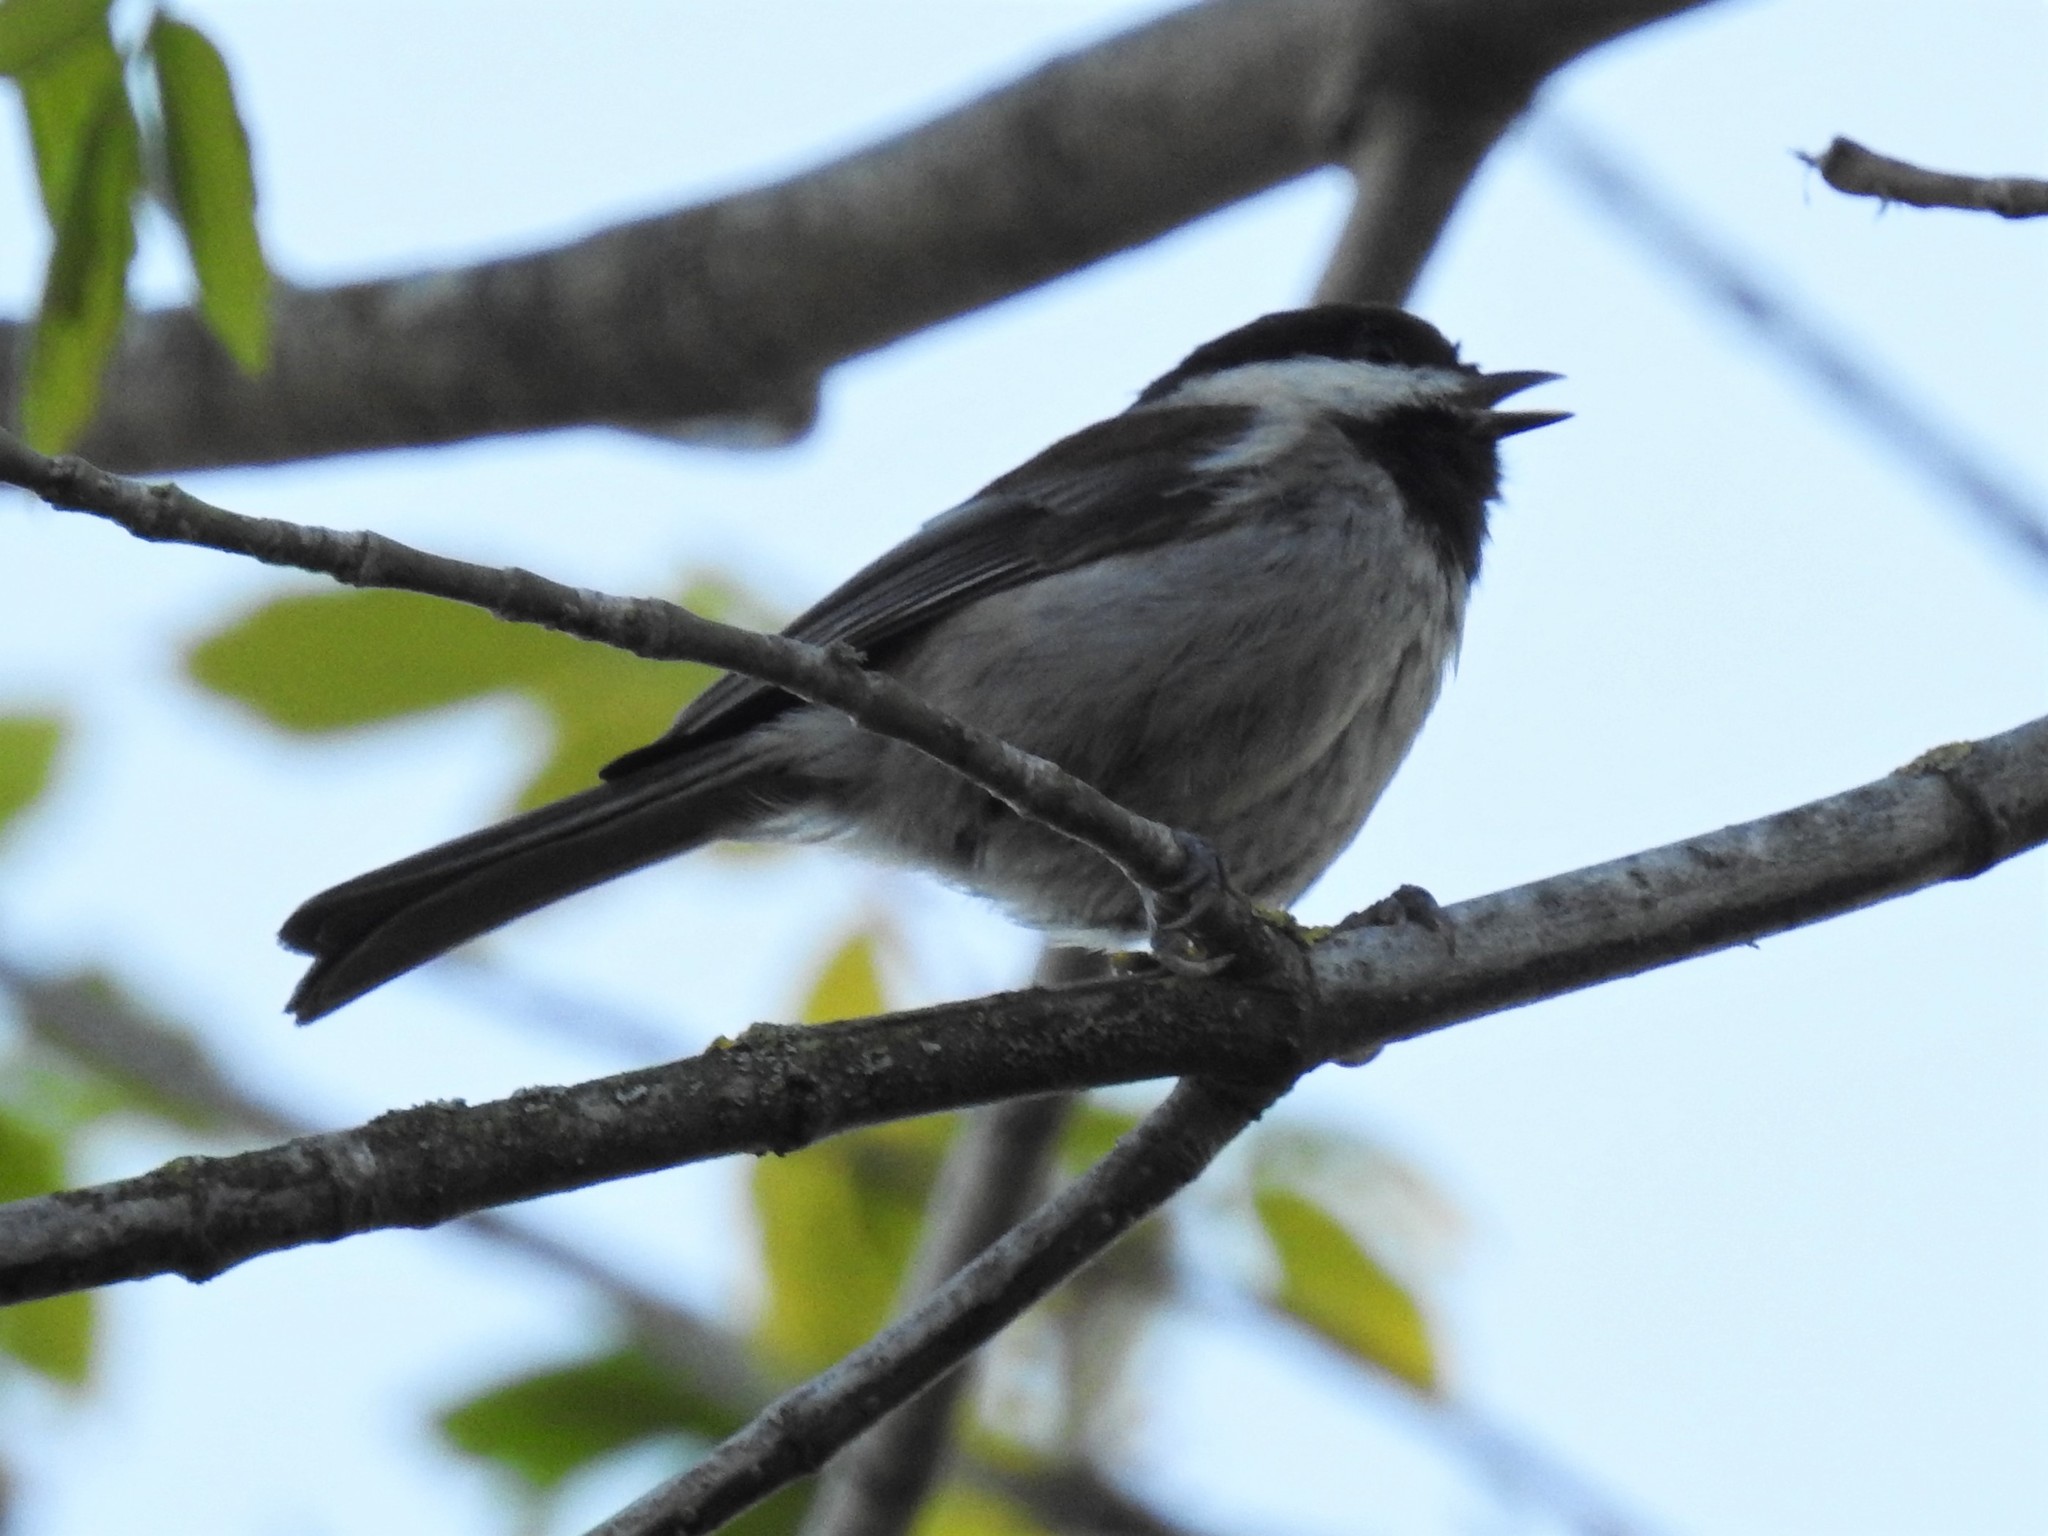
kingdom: Animalia
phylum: Chordata
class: Aves
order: Passeriformes
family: Paridae
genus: Poecile
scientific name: Poecile rufescens
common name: Chestnut-backed chickadee
